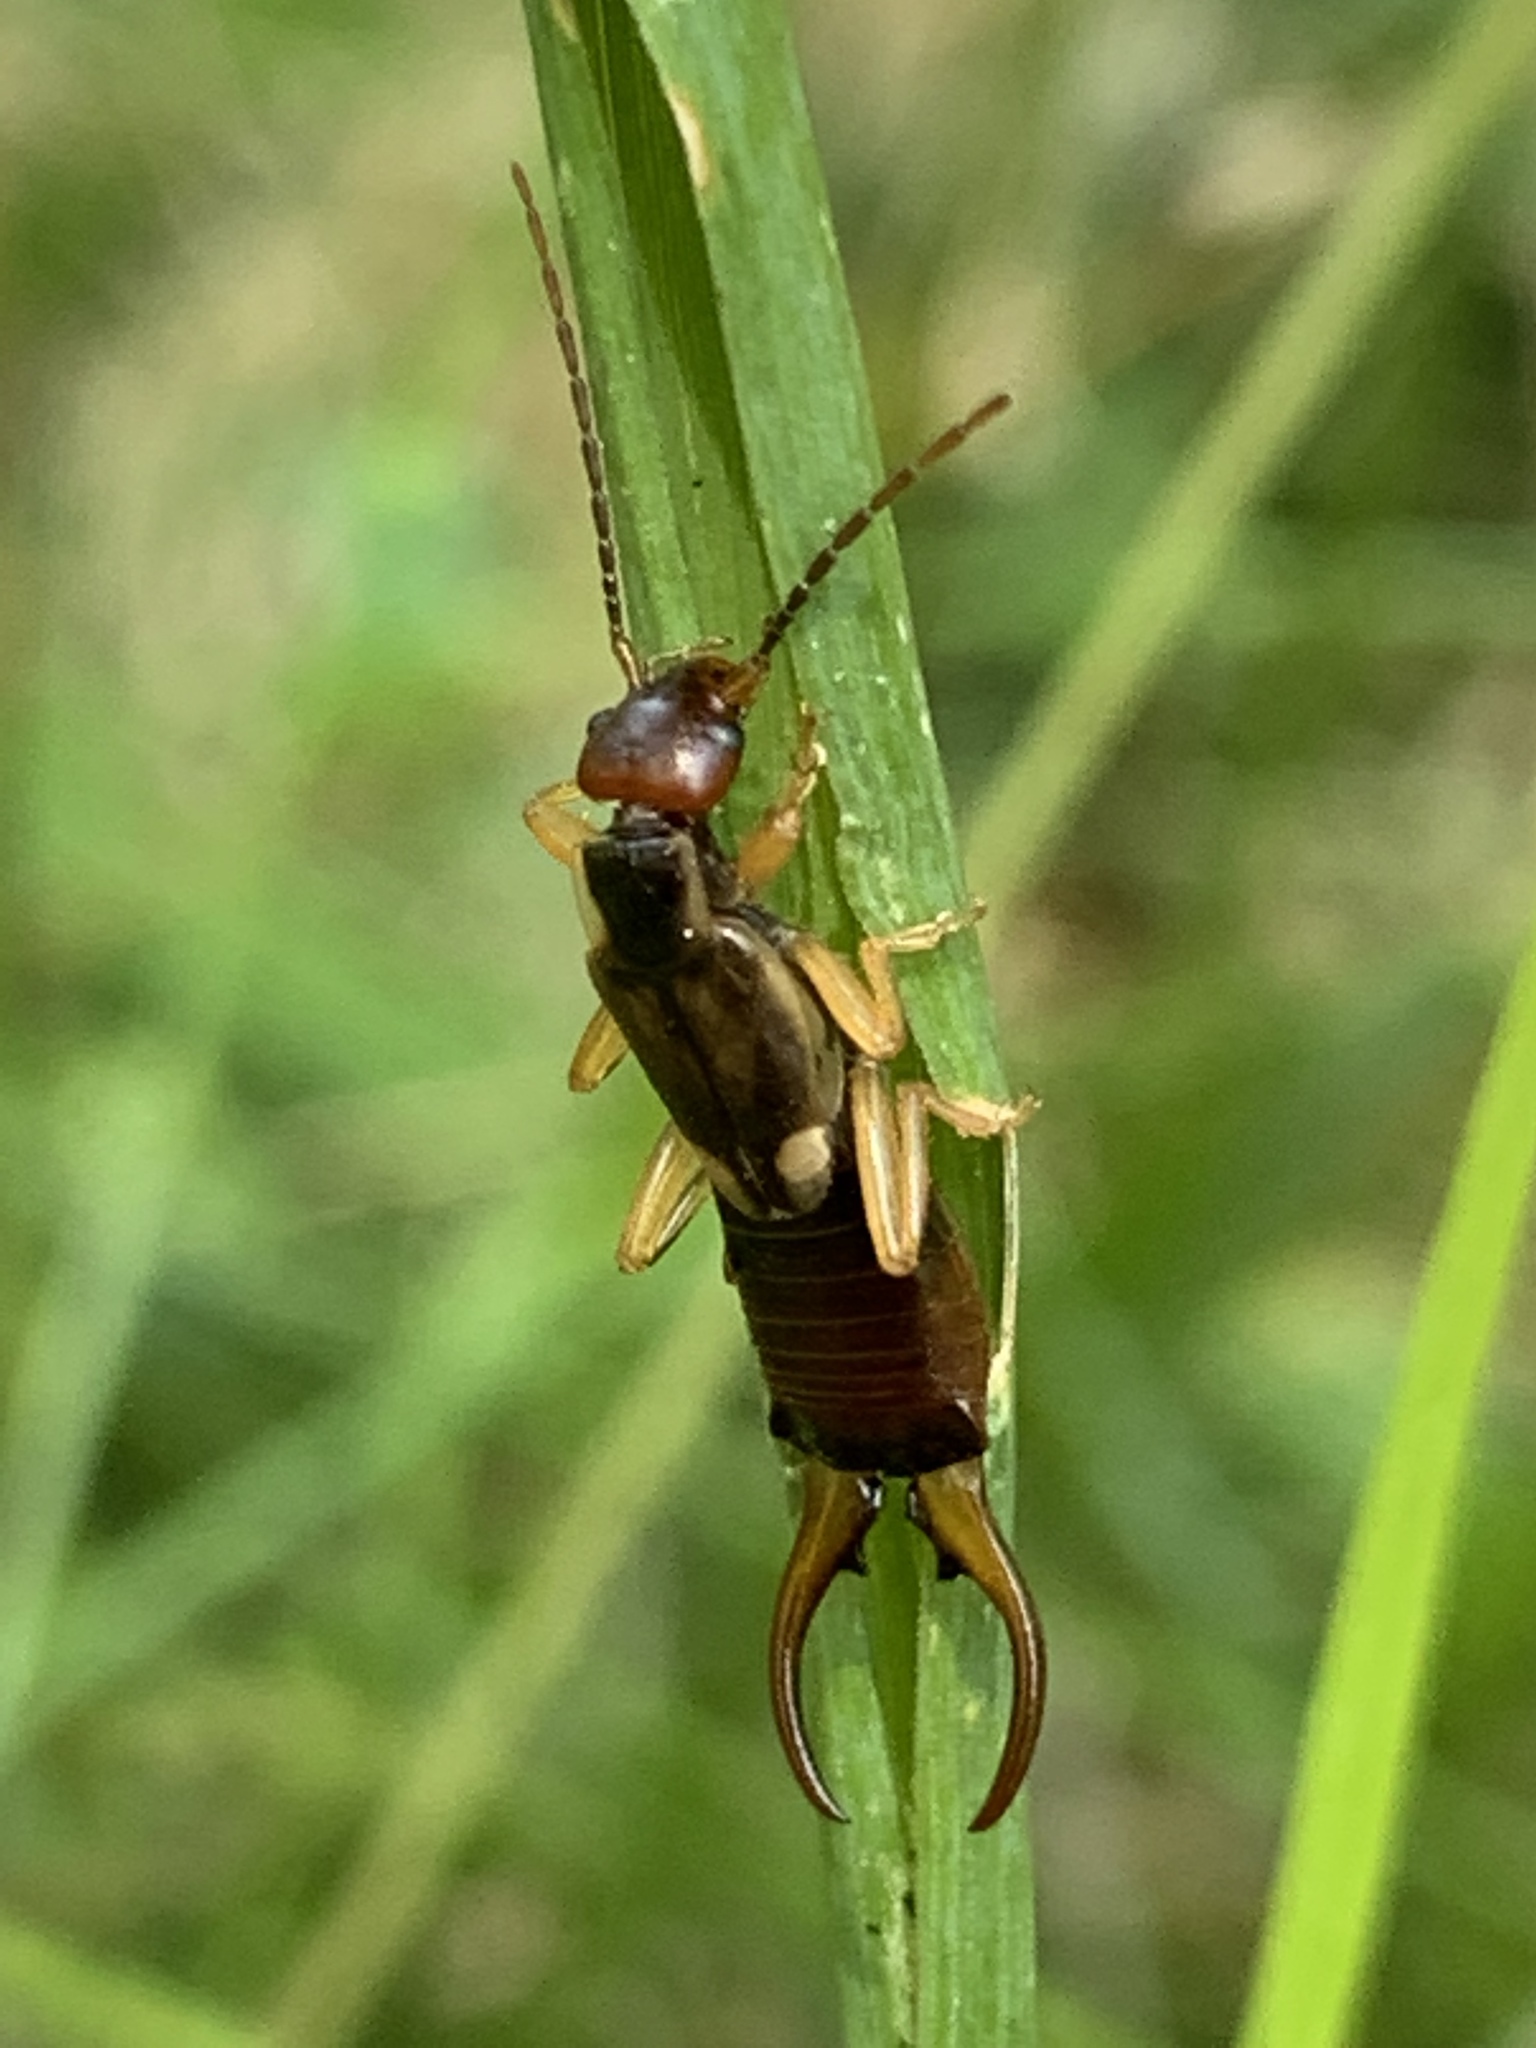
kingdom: Animalia
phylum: Arthropoda
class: Insecta
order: Dermaptera
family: Forficulidae
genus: Forficula
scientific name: Forficula
